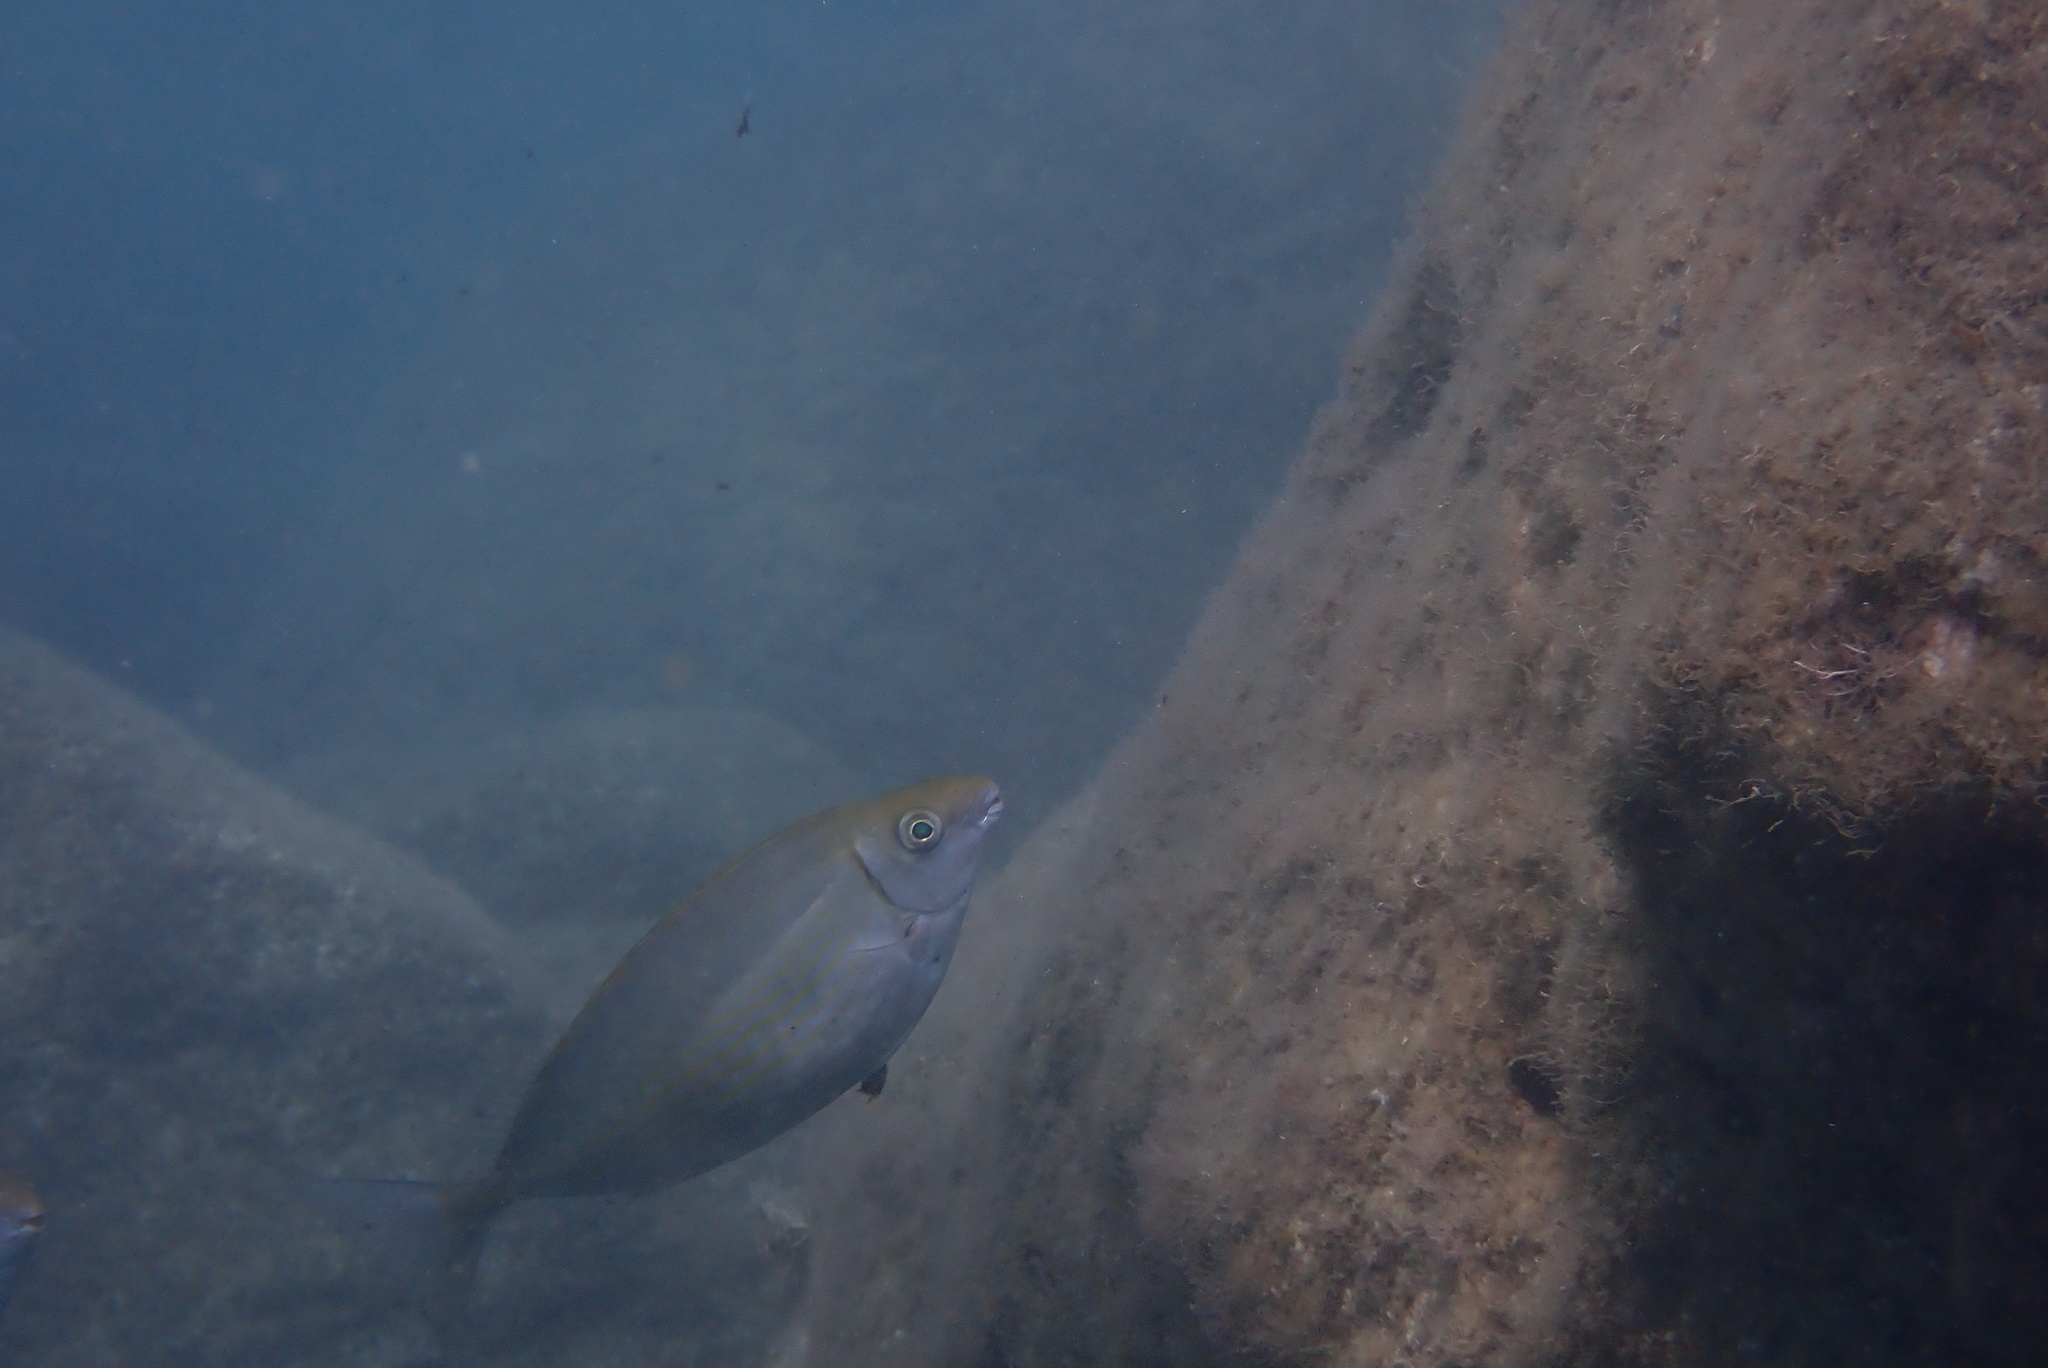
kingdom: Animalia
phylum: Chordata
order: Perciformes
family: Siganidae
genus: Siganus
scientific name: Siganus rivulatus
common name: Marbled spinefoot
